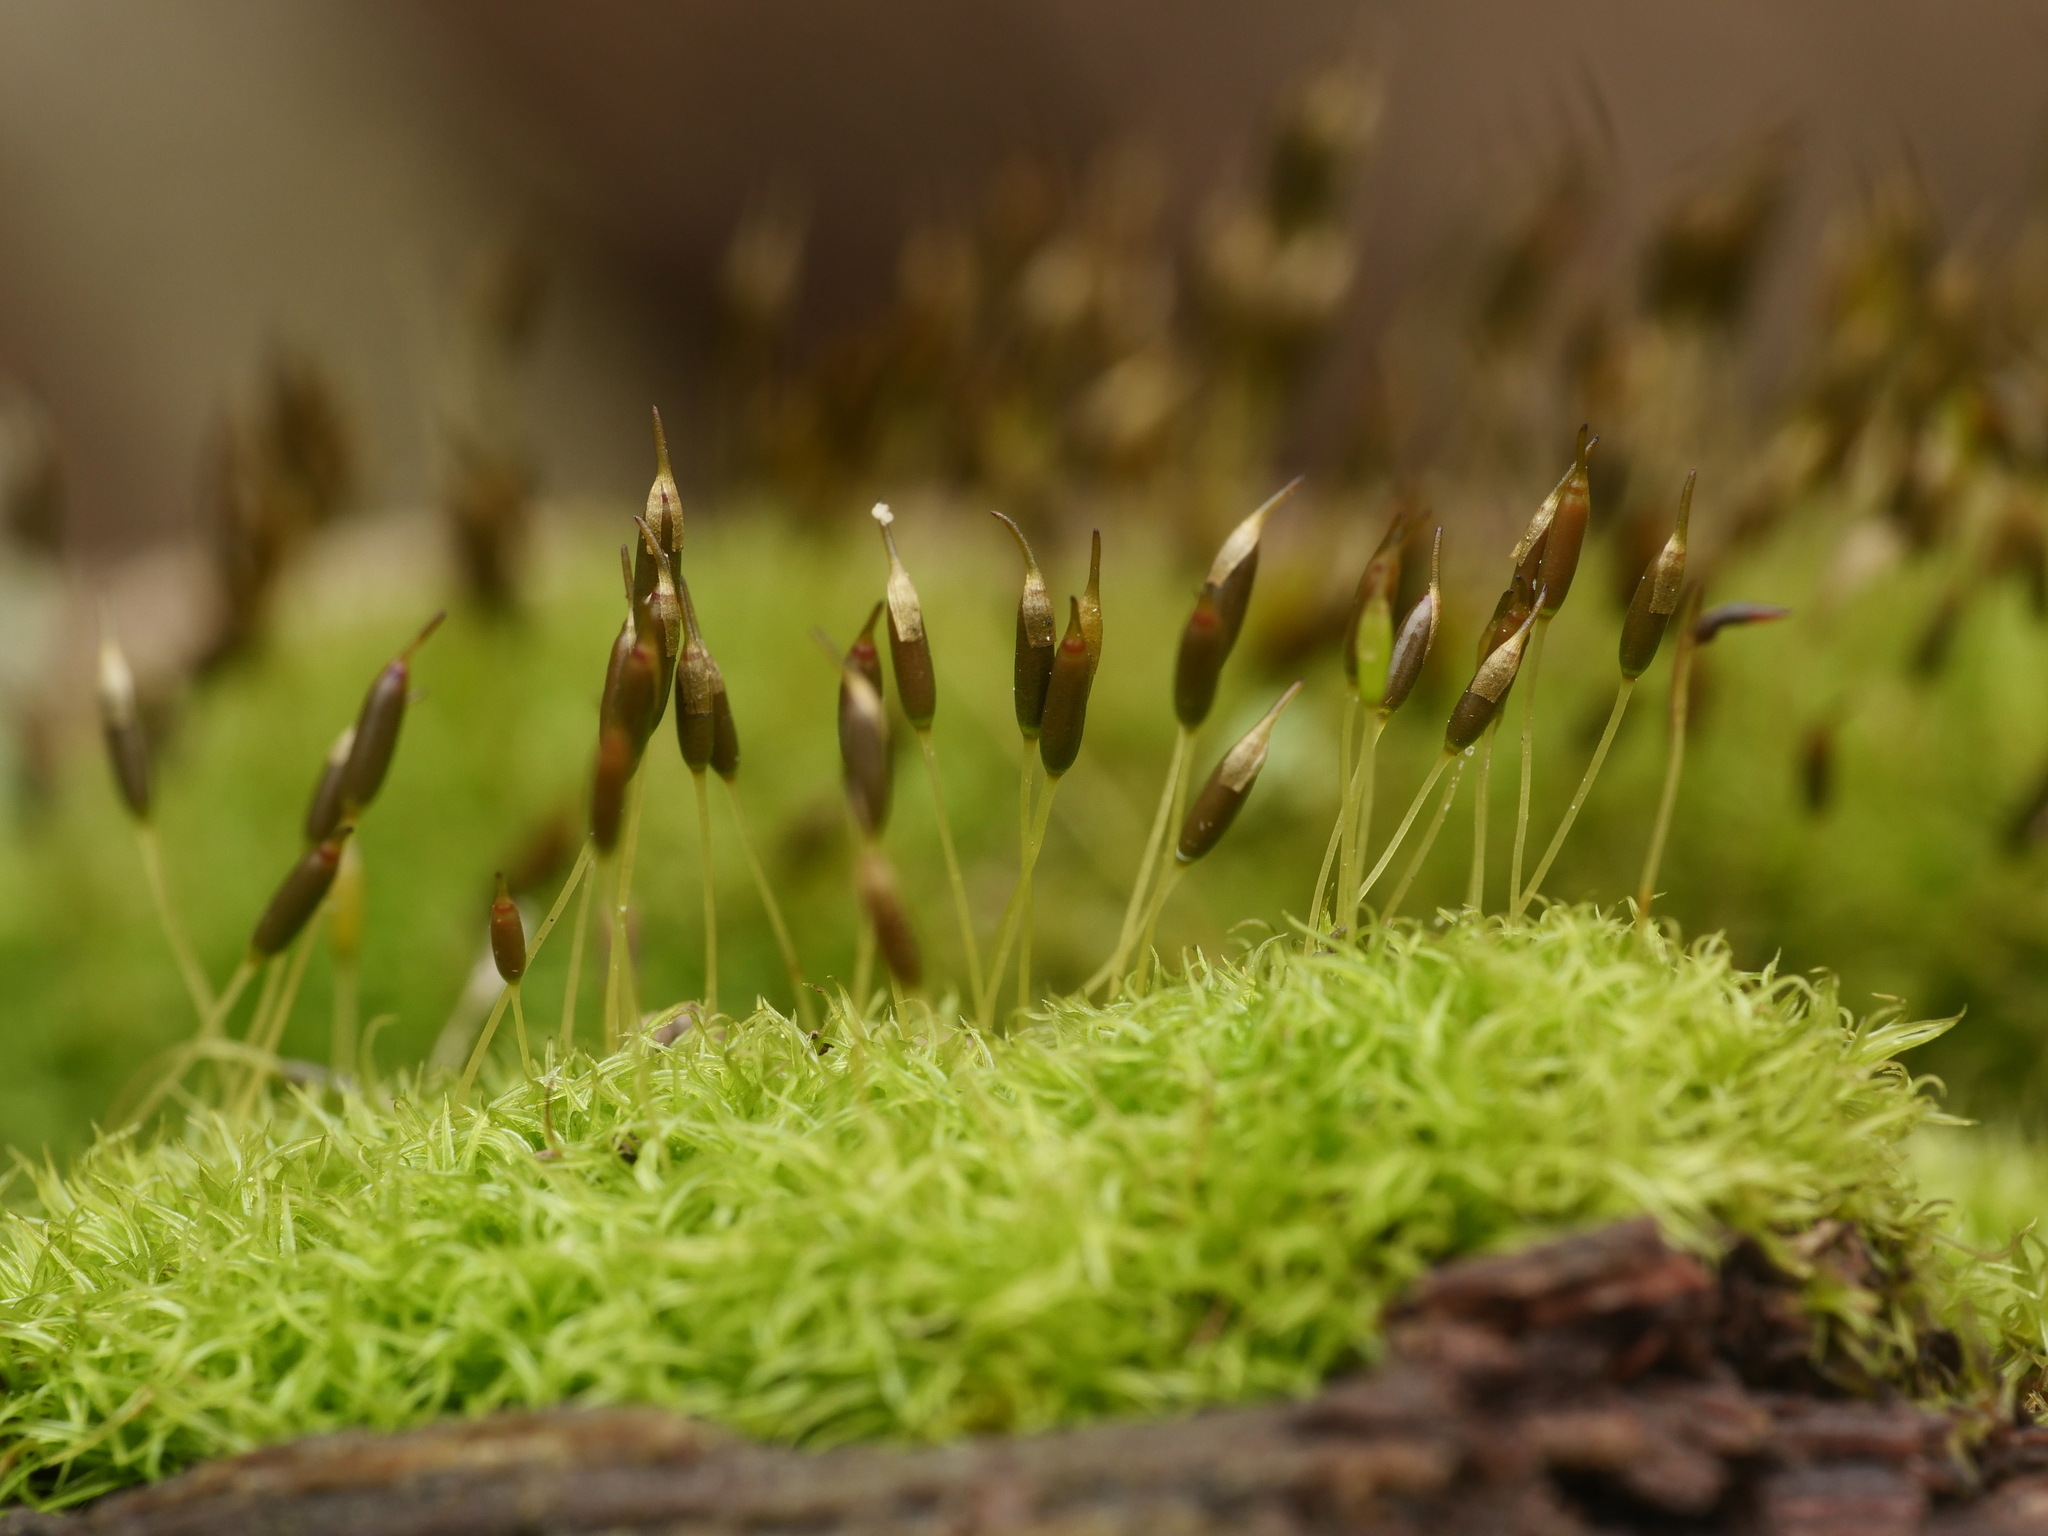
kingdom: Plantae
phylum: Bryophyta
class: Bryopsida
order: Dicranales
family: Rhabdoweisiaceae
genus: Dicranoweisia
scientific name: Dicranoweisia cirrata
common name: Common pincushion
